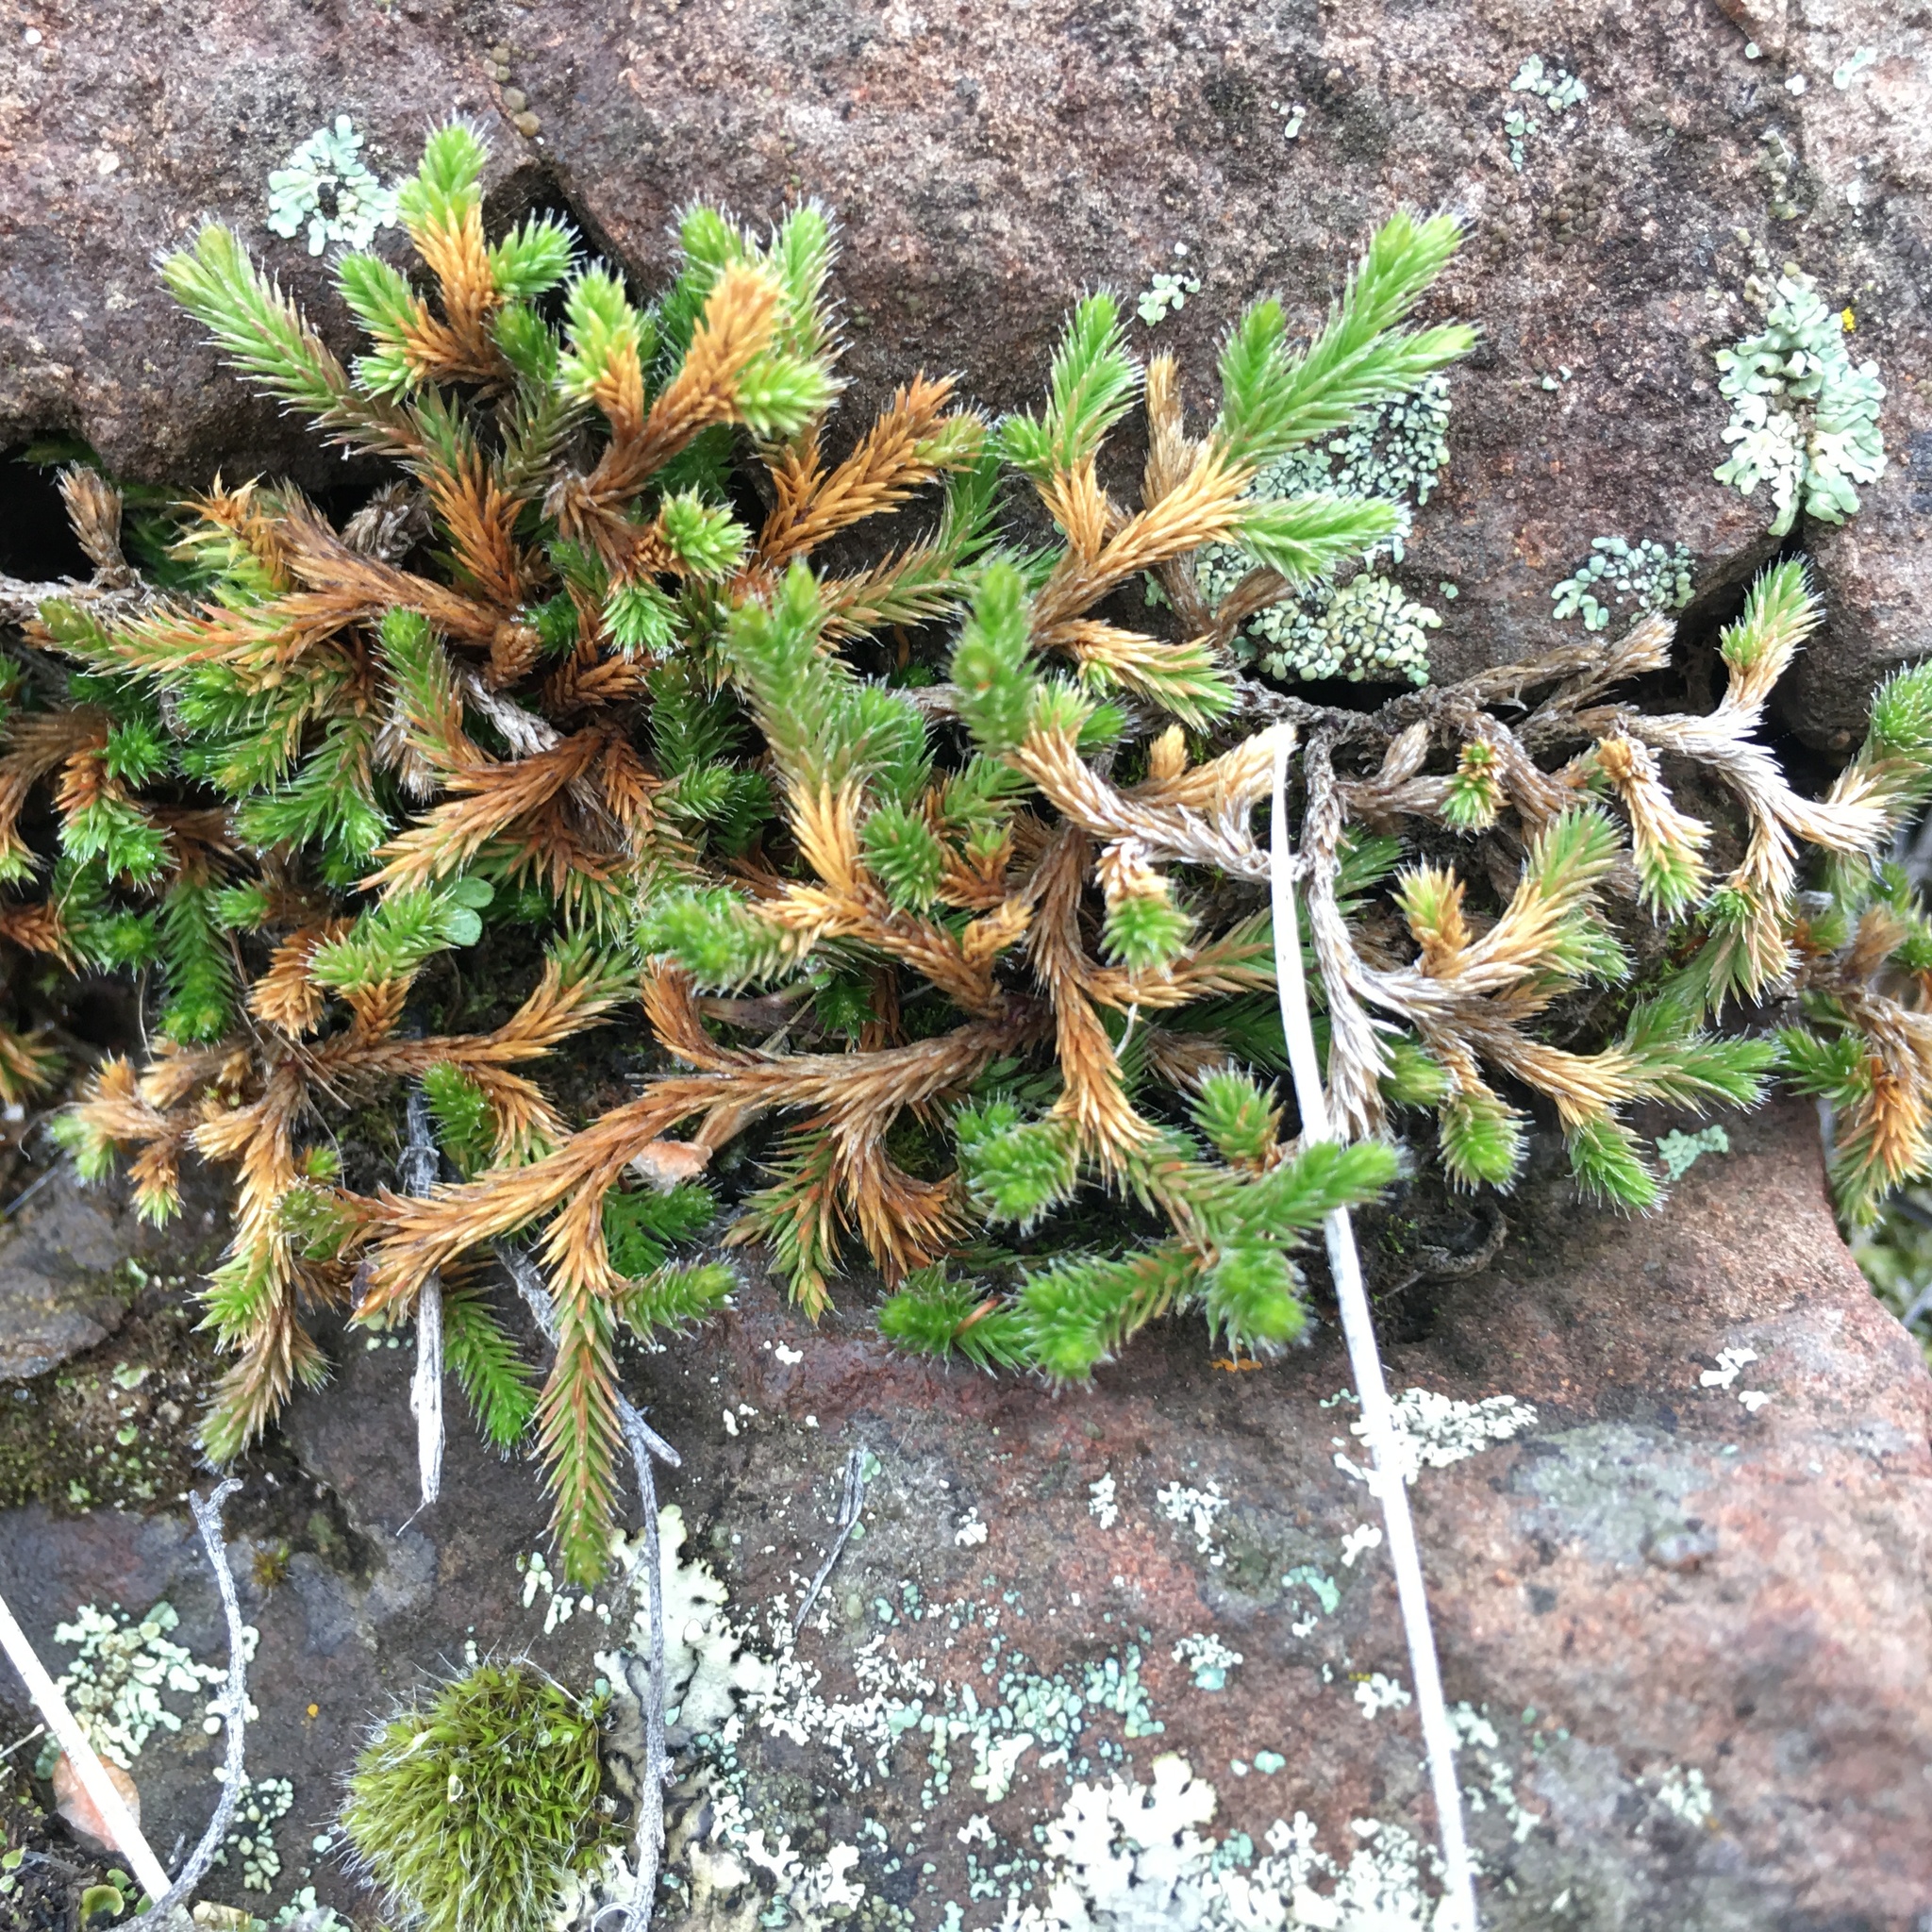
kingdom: Plantae
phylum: Tracheophyta
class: Lycopodiopsida
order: Selaginellales
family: Selaginellaceae
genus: Selaginella
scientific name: Selaginella wallacei
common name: Wallace's selaginella
